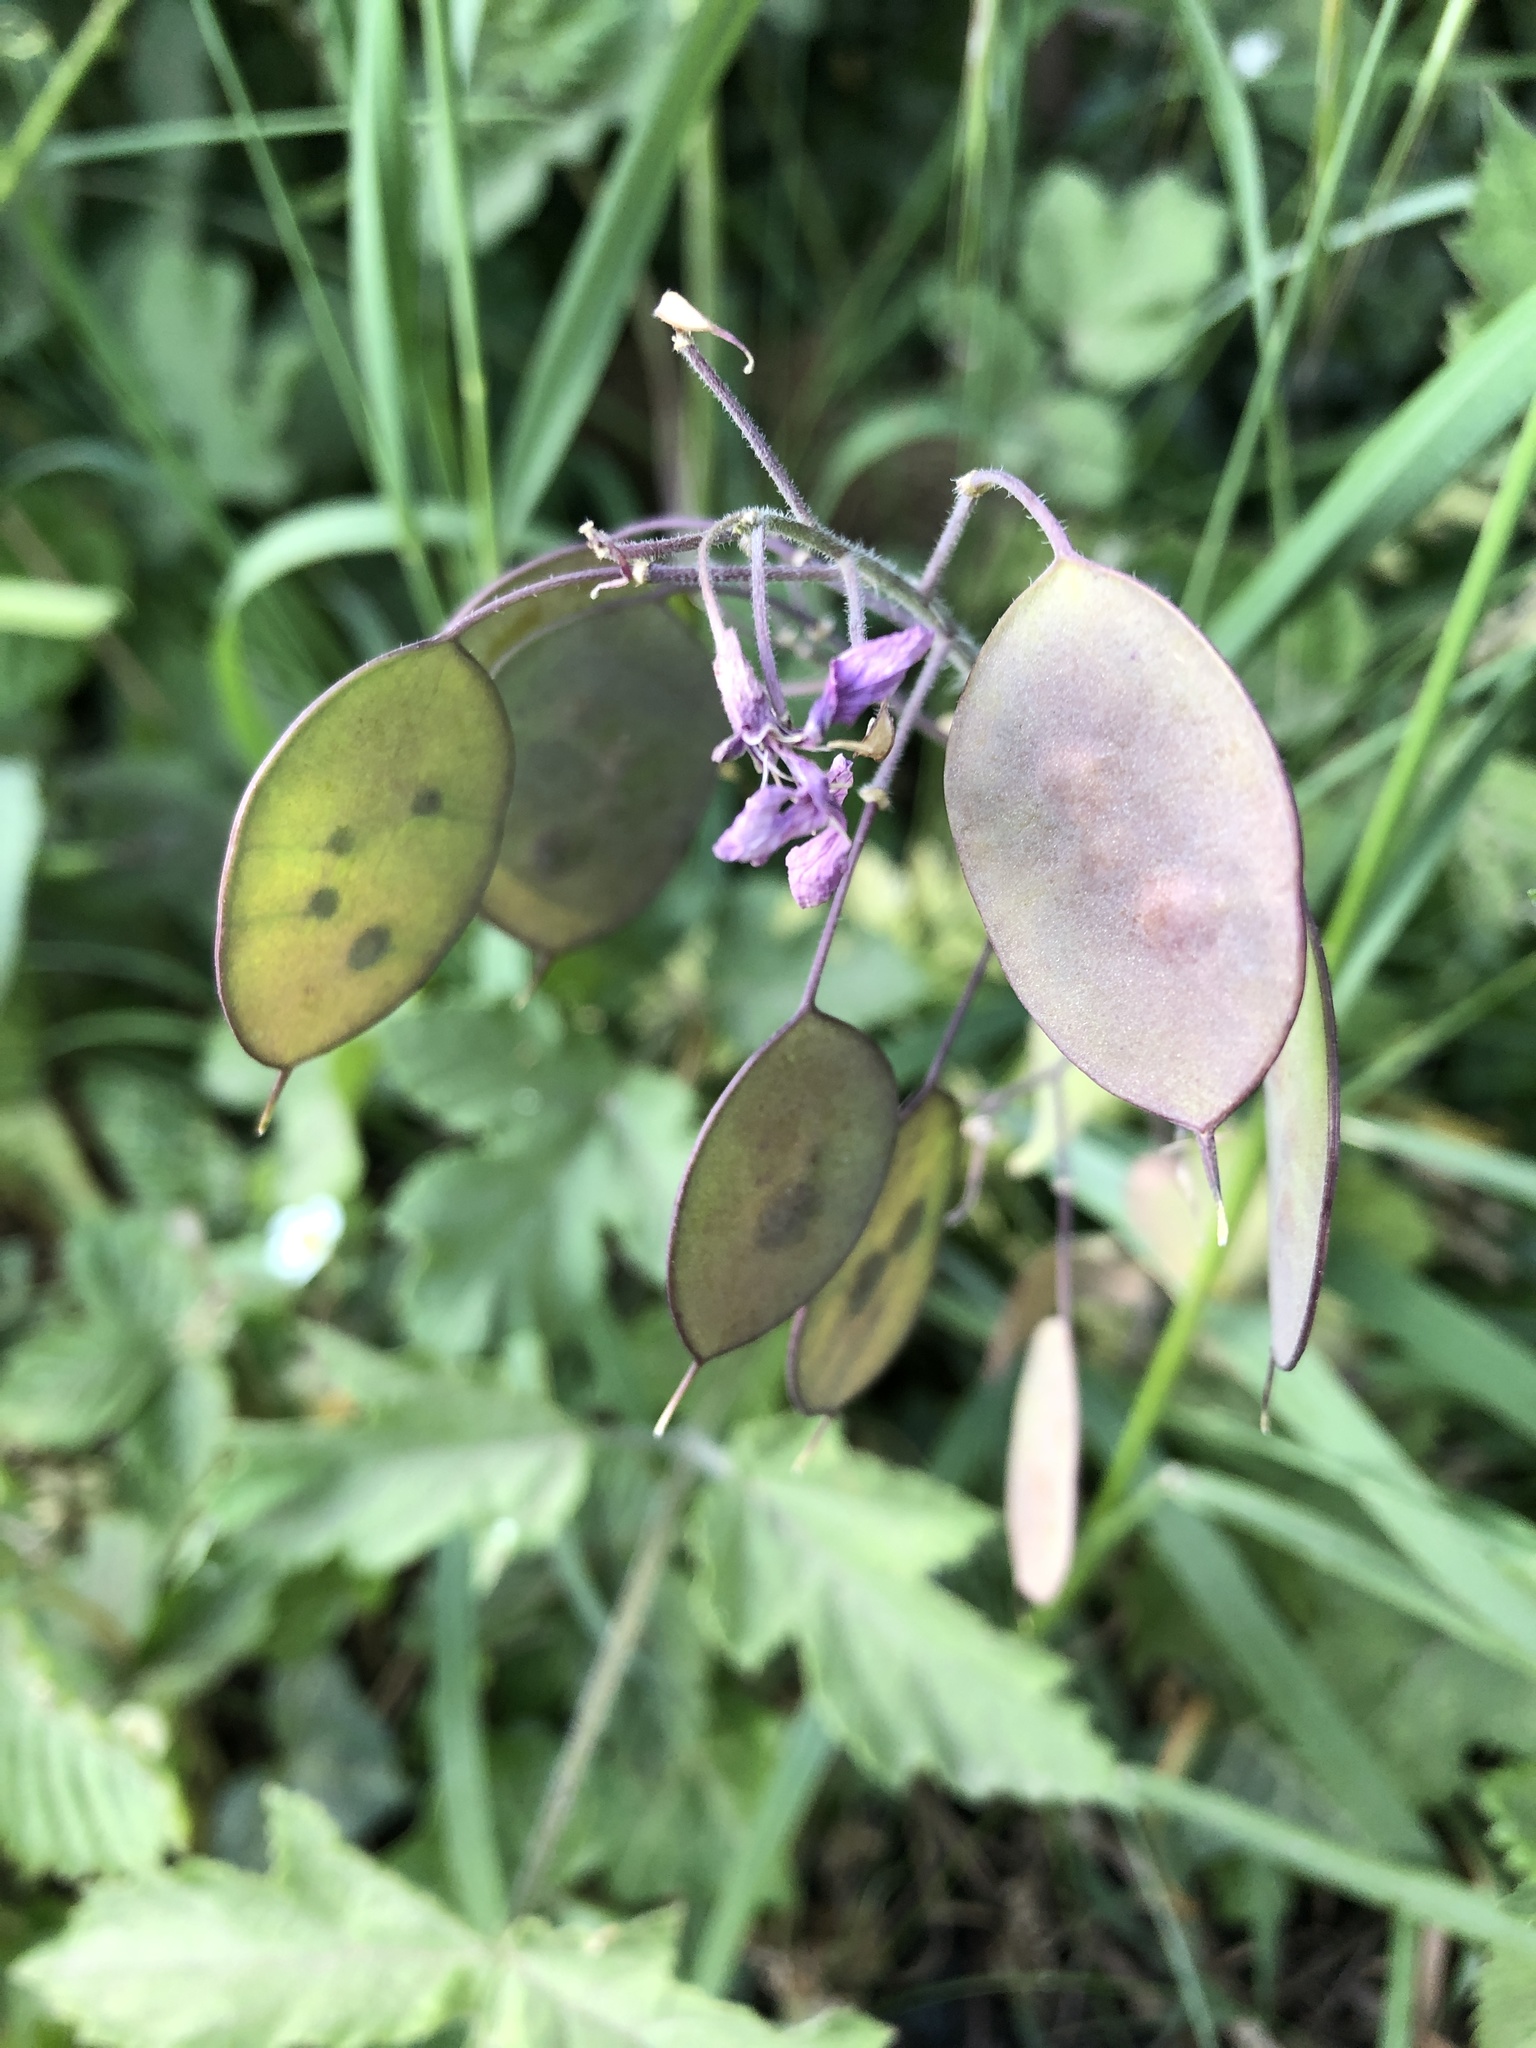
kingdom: Plantae
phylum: Tracheophyta
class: Magnoliopsida
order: Brassicales
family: Brassicaceae
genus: Lunaria
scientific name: Lunaria annua
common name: Honesty
